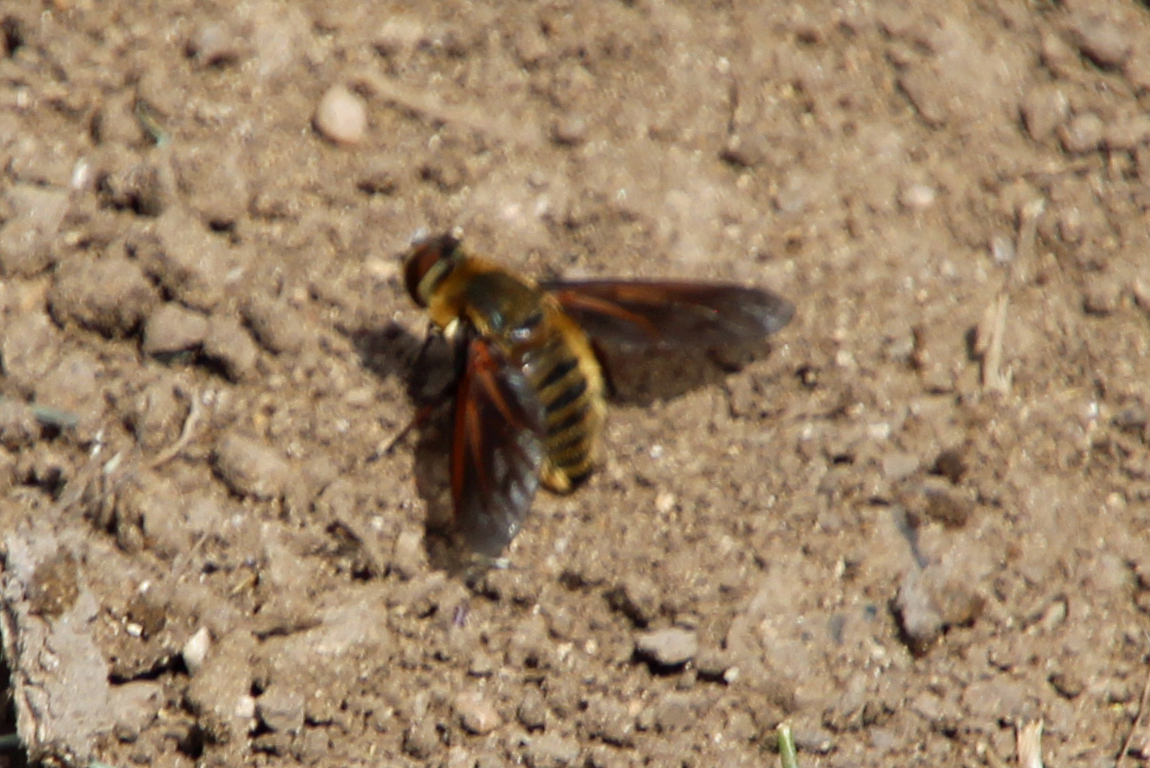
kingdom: Animalia
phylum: Arthropoda
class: Insecta
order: Diptera
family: Bombyliidae
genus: Poecilanthrax
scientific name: Poecilanthrax lucifer
